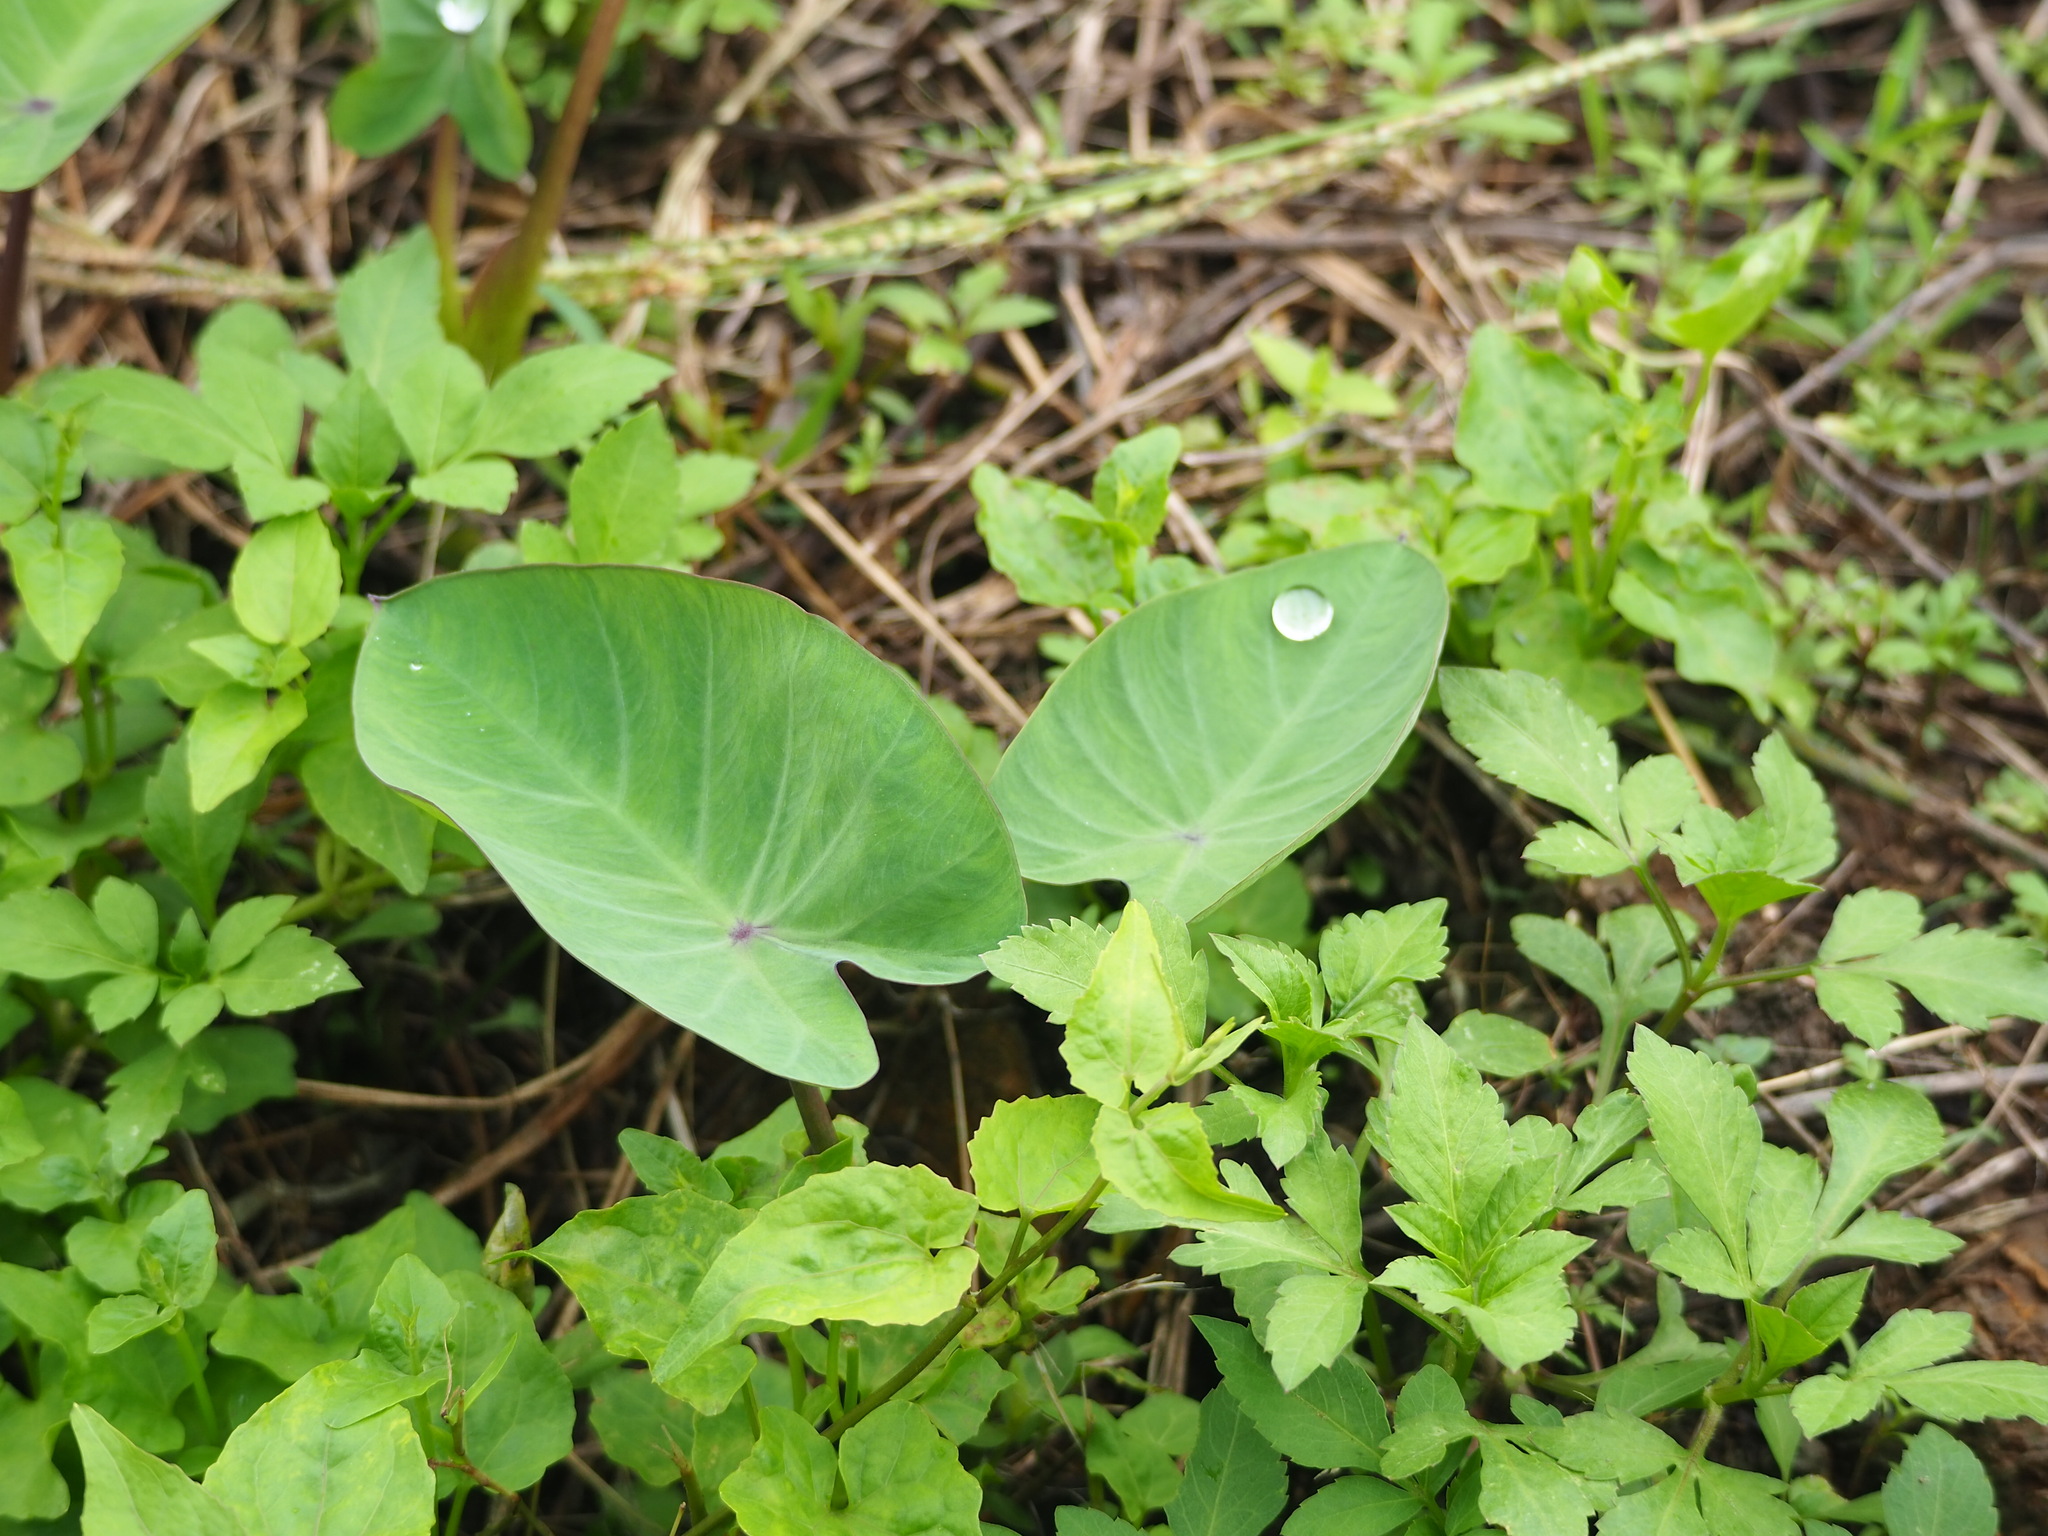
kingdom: Plantae
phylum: Tracheophyta
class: Liliopsida
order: Alismatales
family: Araceae
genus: Colocasia
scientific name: Colocasia esculenta
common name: Taro
